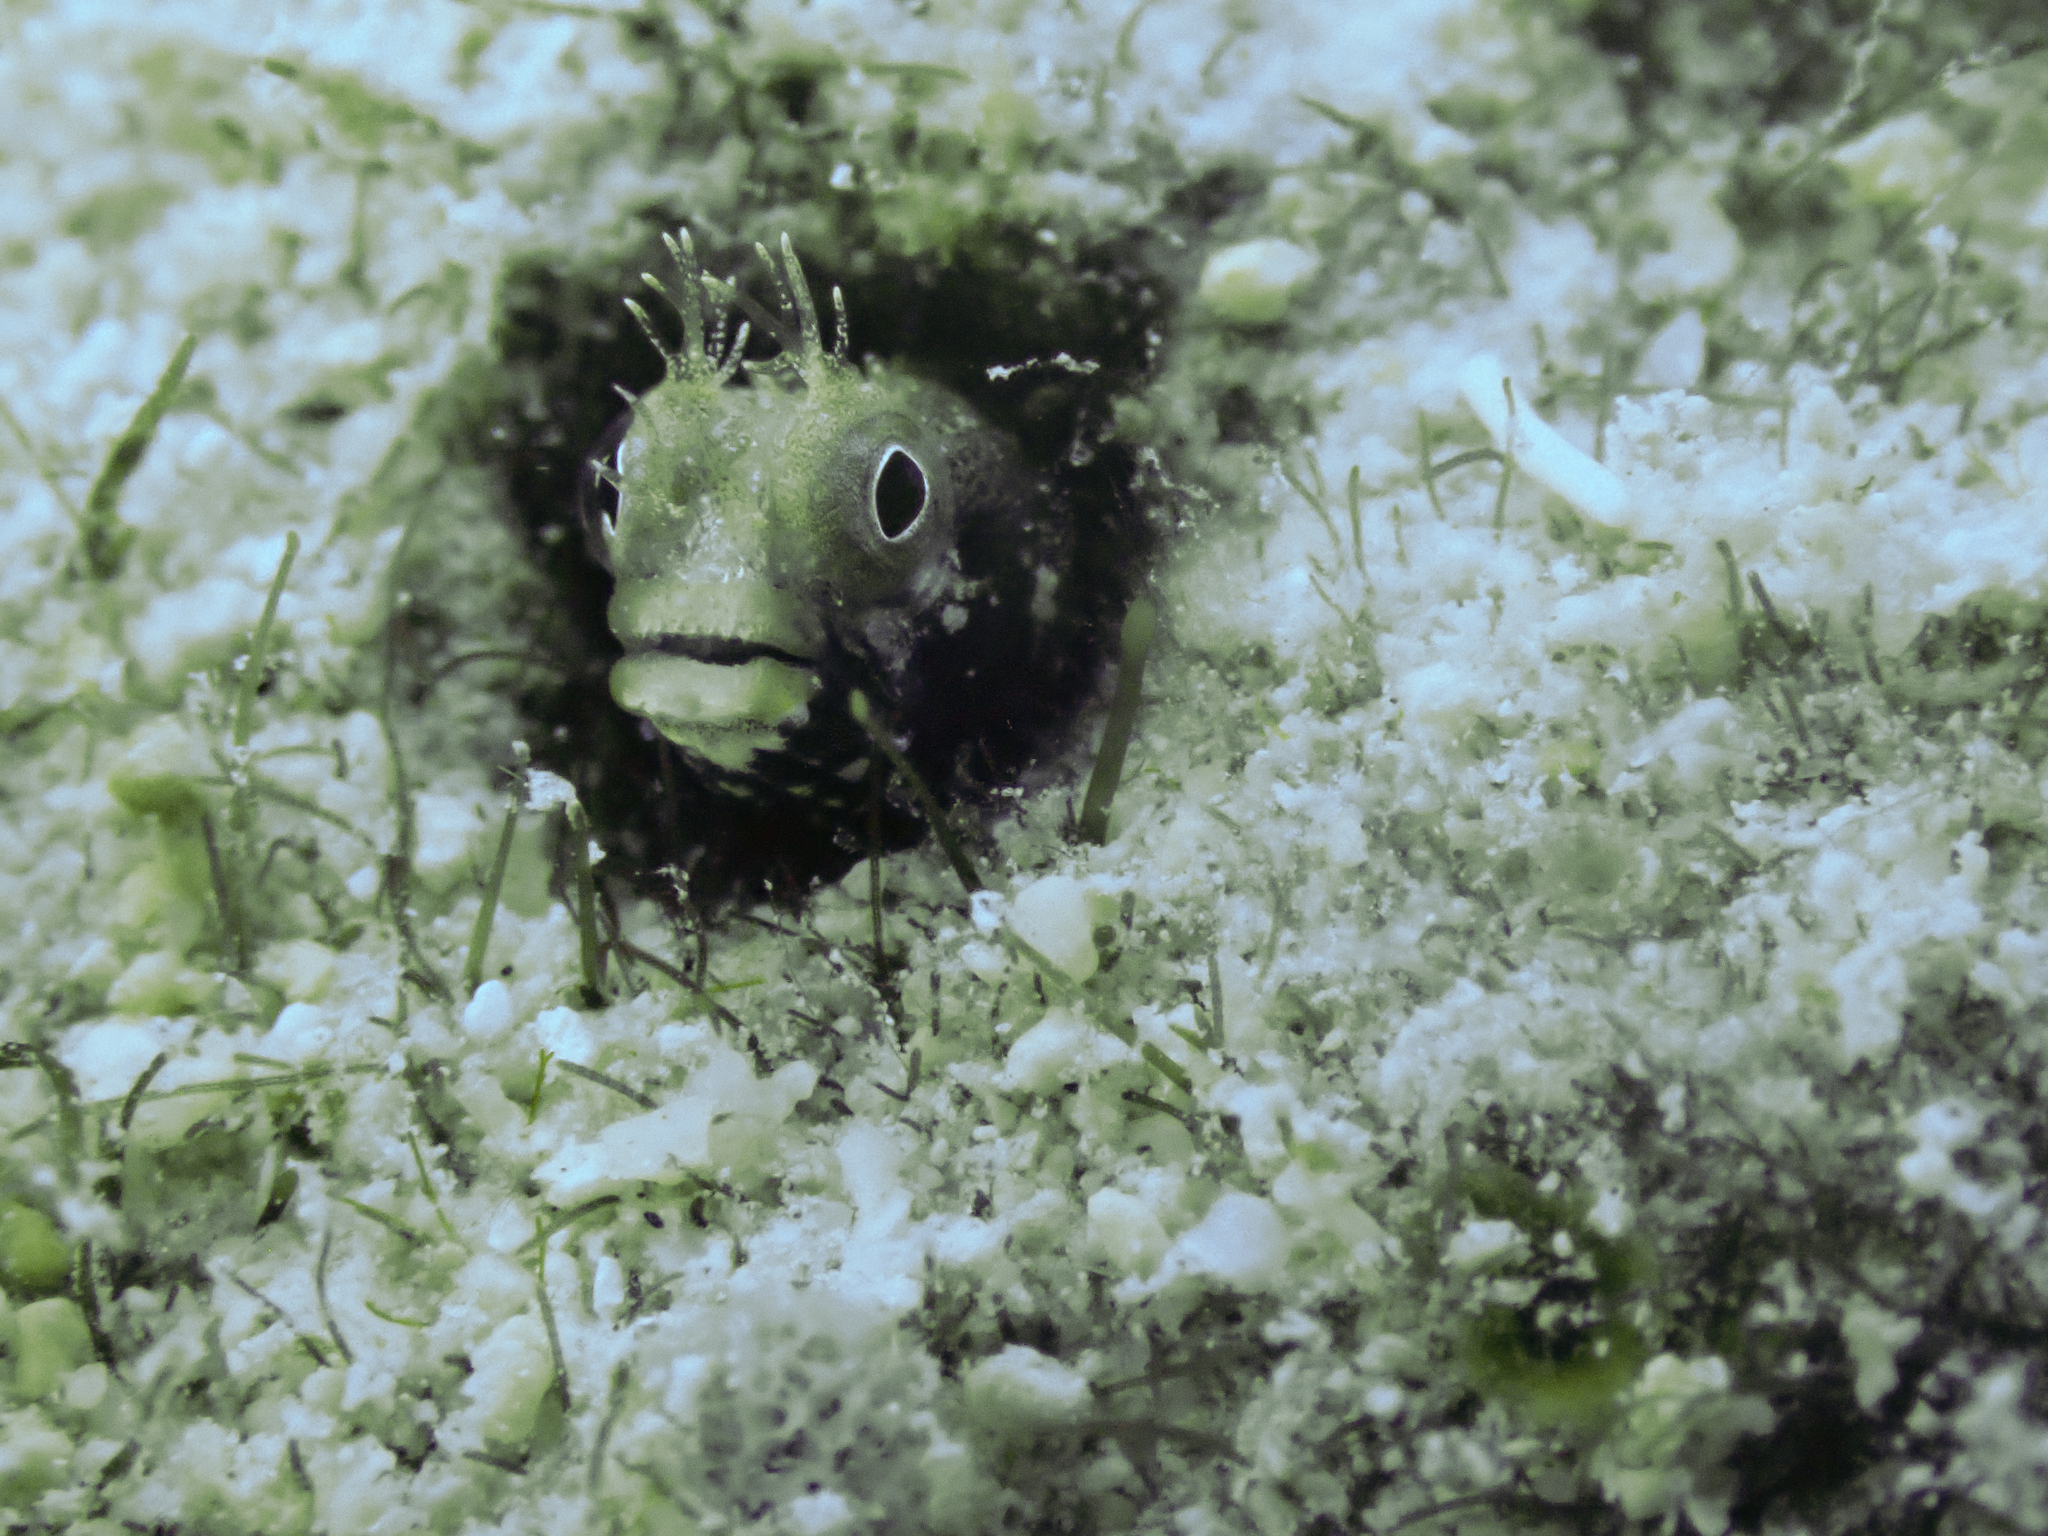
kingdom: Animalia
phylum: Chordata
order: Perciformes
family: Chaenopsidae
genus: Acanthemblemaria
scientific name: Acanthemblemaria aspera
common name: Roughhead blenny
